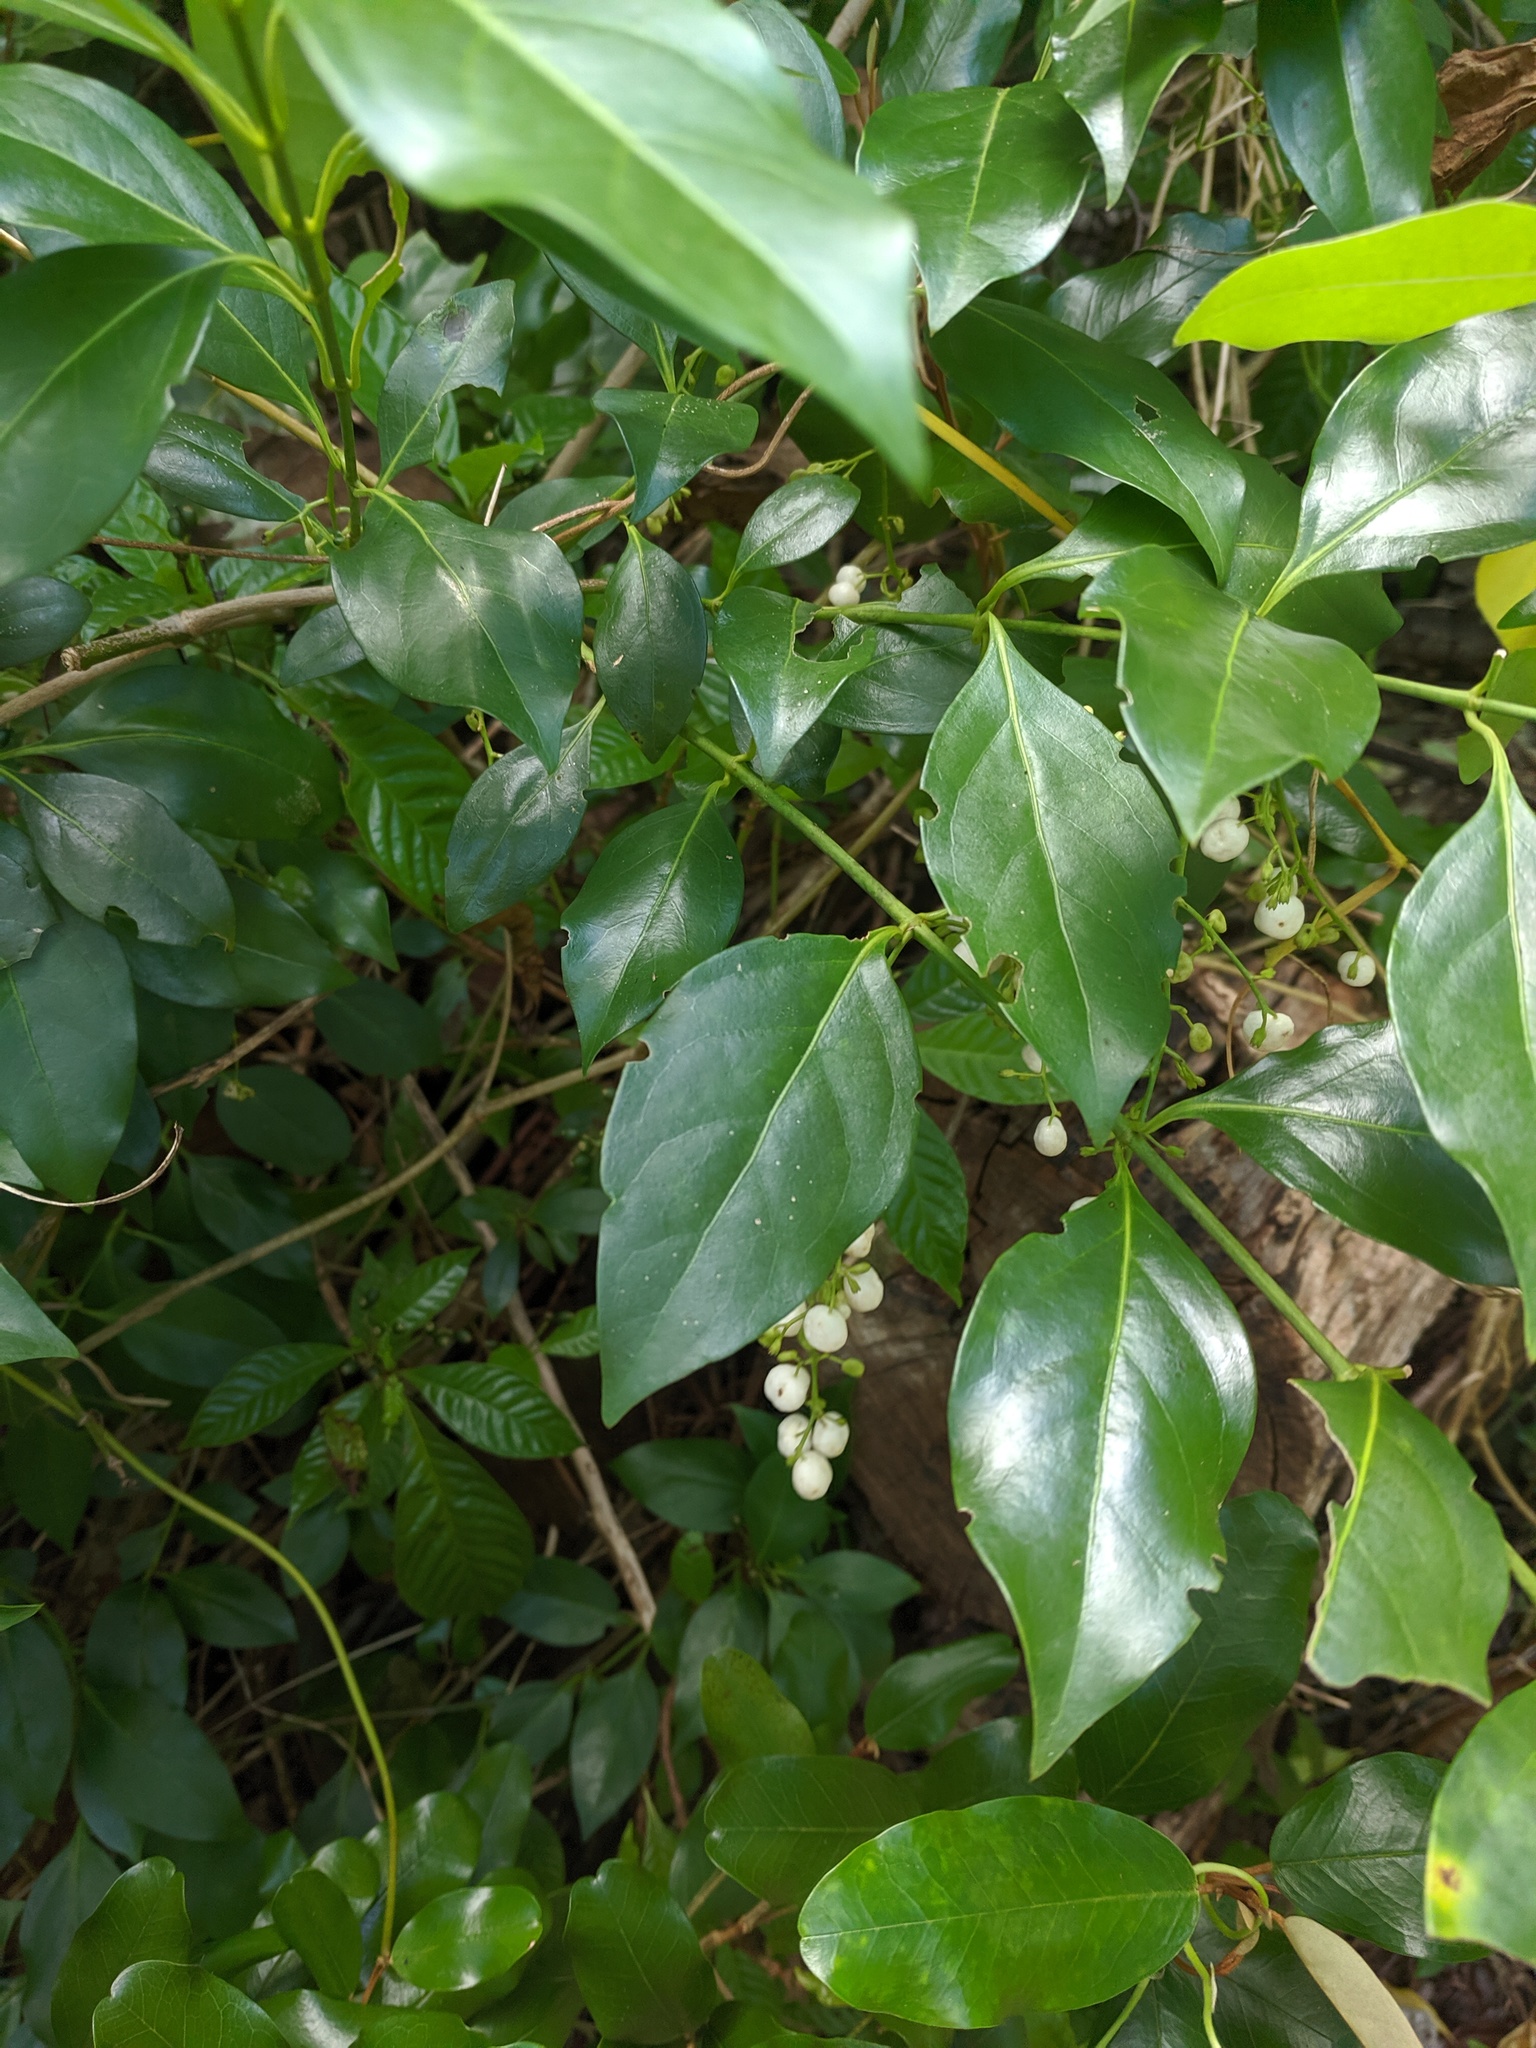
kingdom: Plantae
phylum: Tracheophyta
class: Magnoliopsida
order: Gentianales
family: Rubiaceae
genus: Chiococca
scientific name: Chiococca alba
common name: Snowberry
